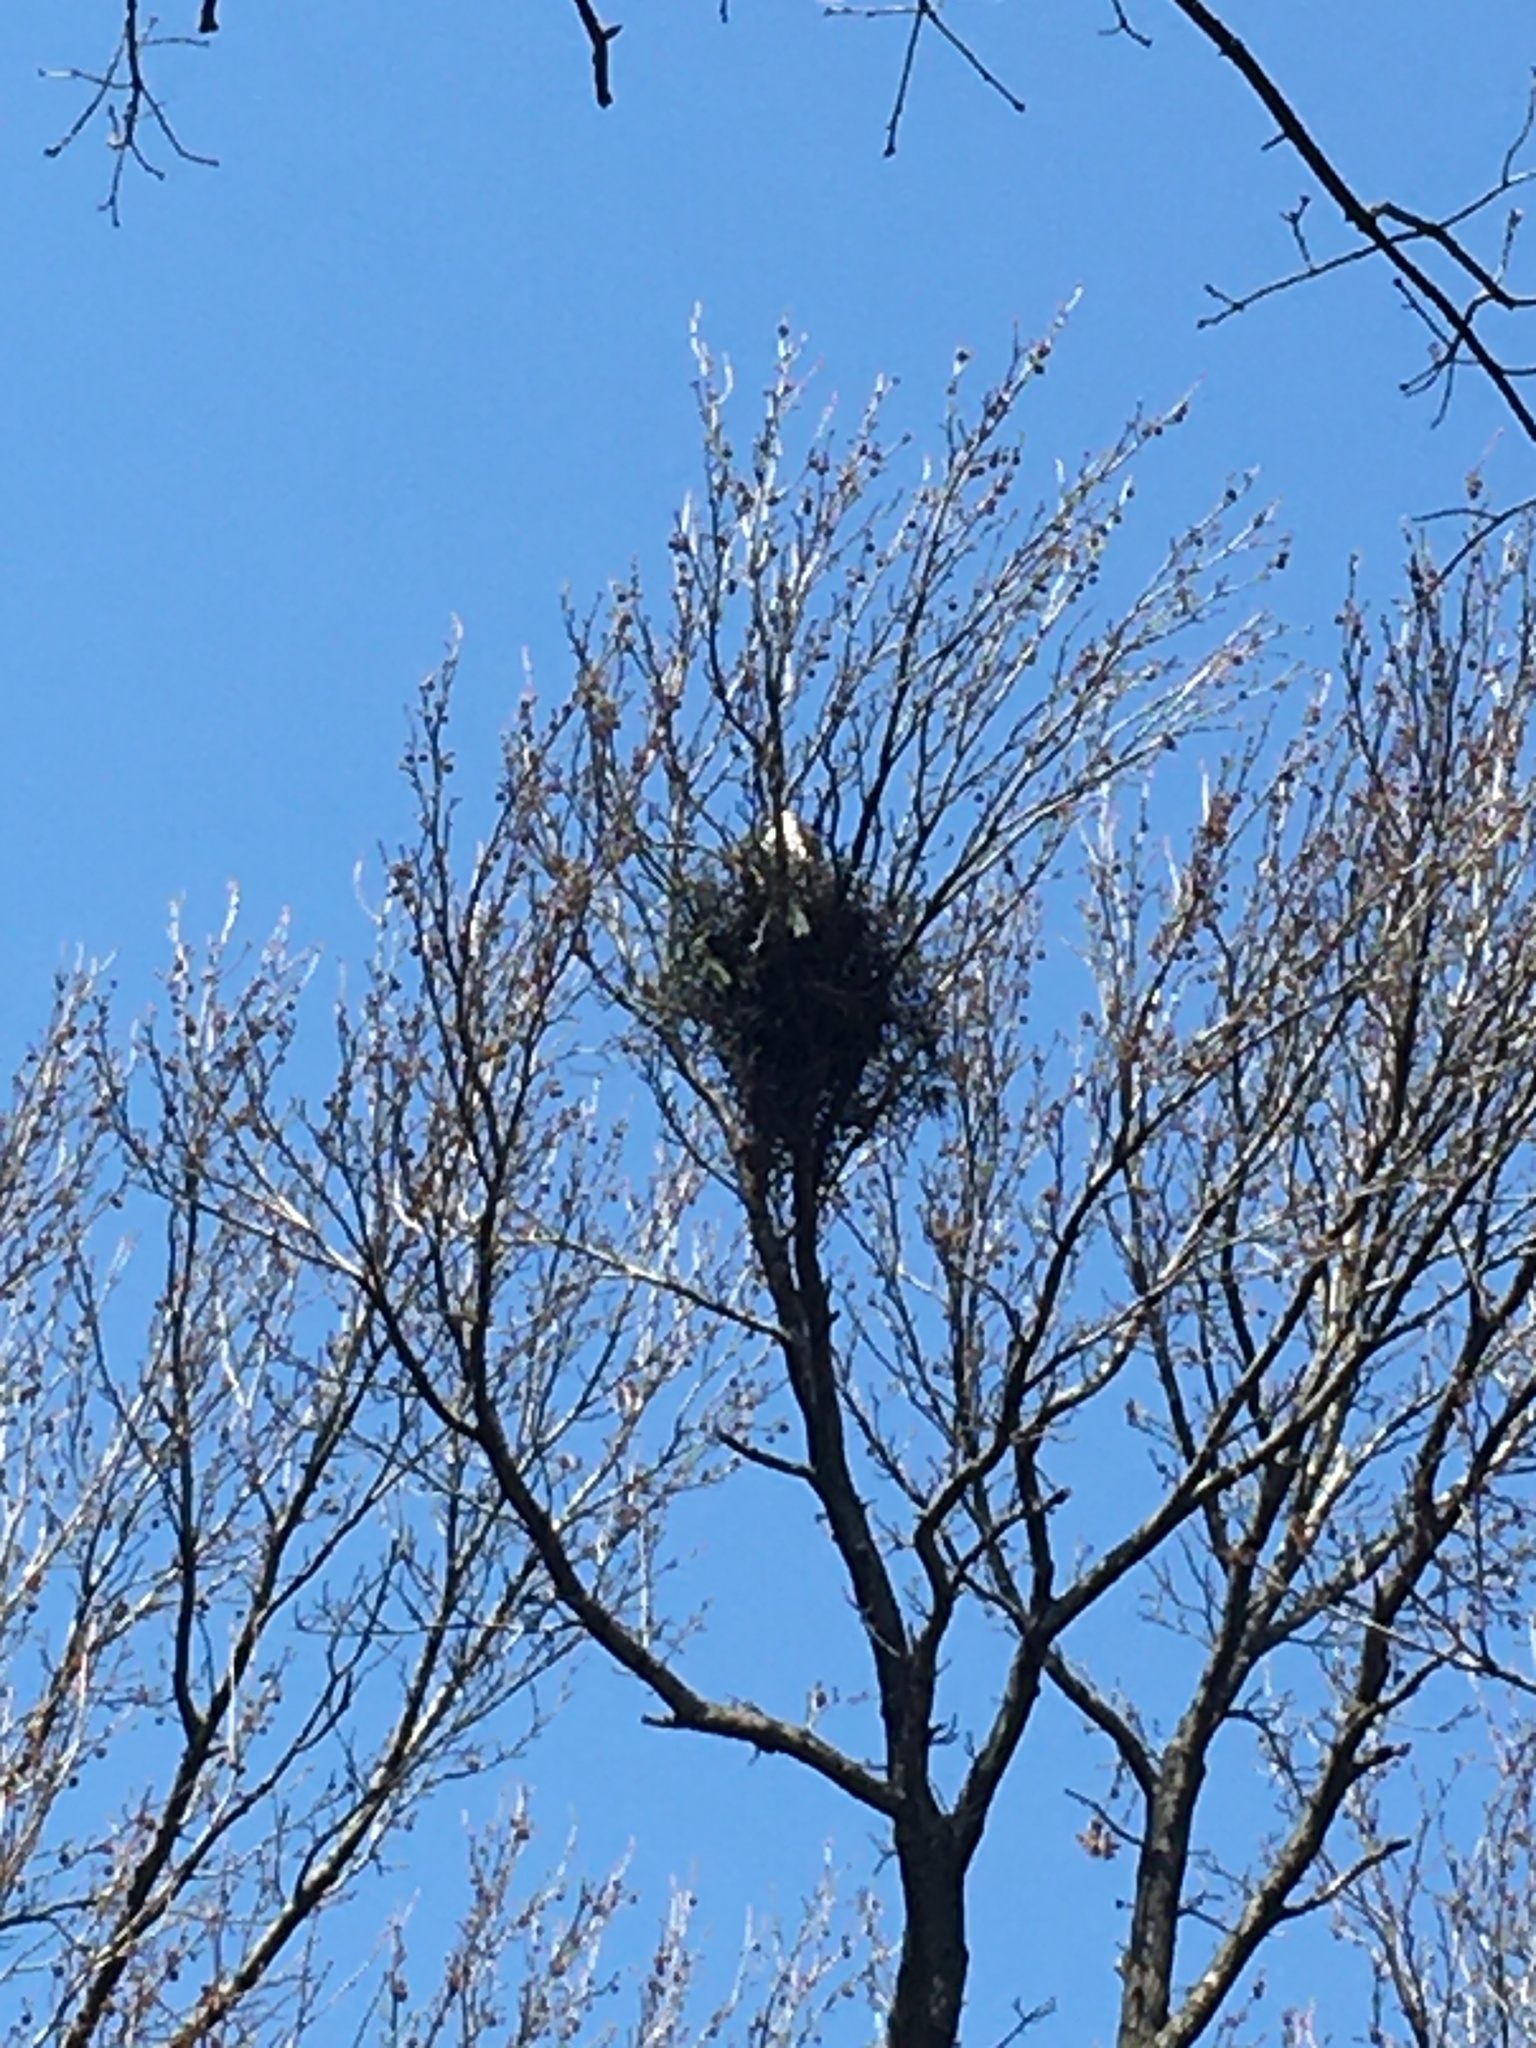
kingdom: Animalia
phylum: Chordata
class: Aves
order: Accipitriformes
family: Accipitridae
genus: Buteo
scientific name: Buteo jamaicensis
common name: Red-tailed hawk
